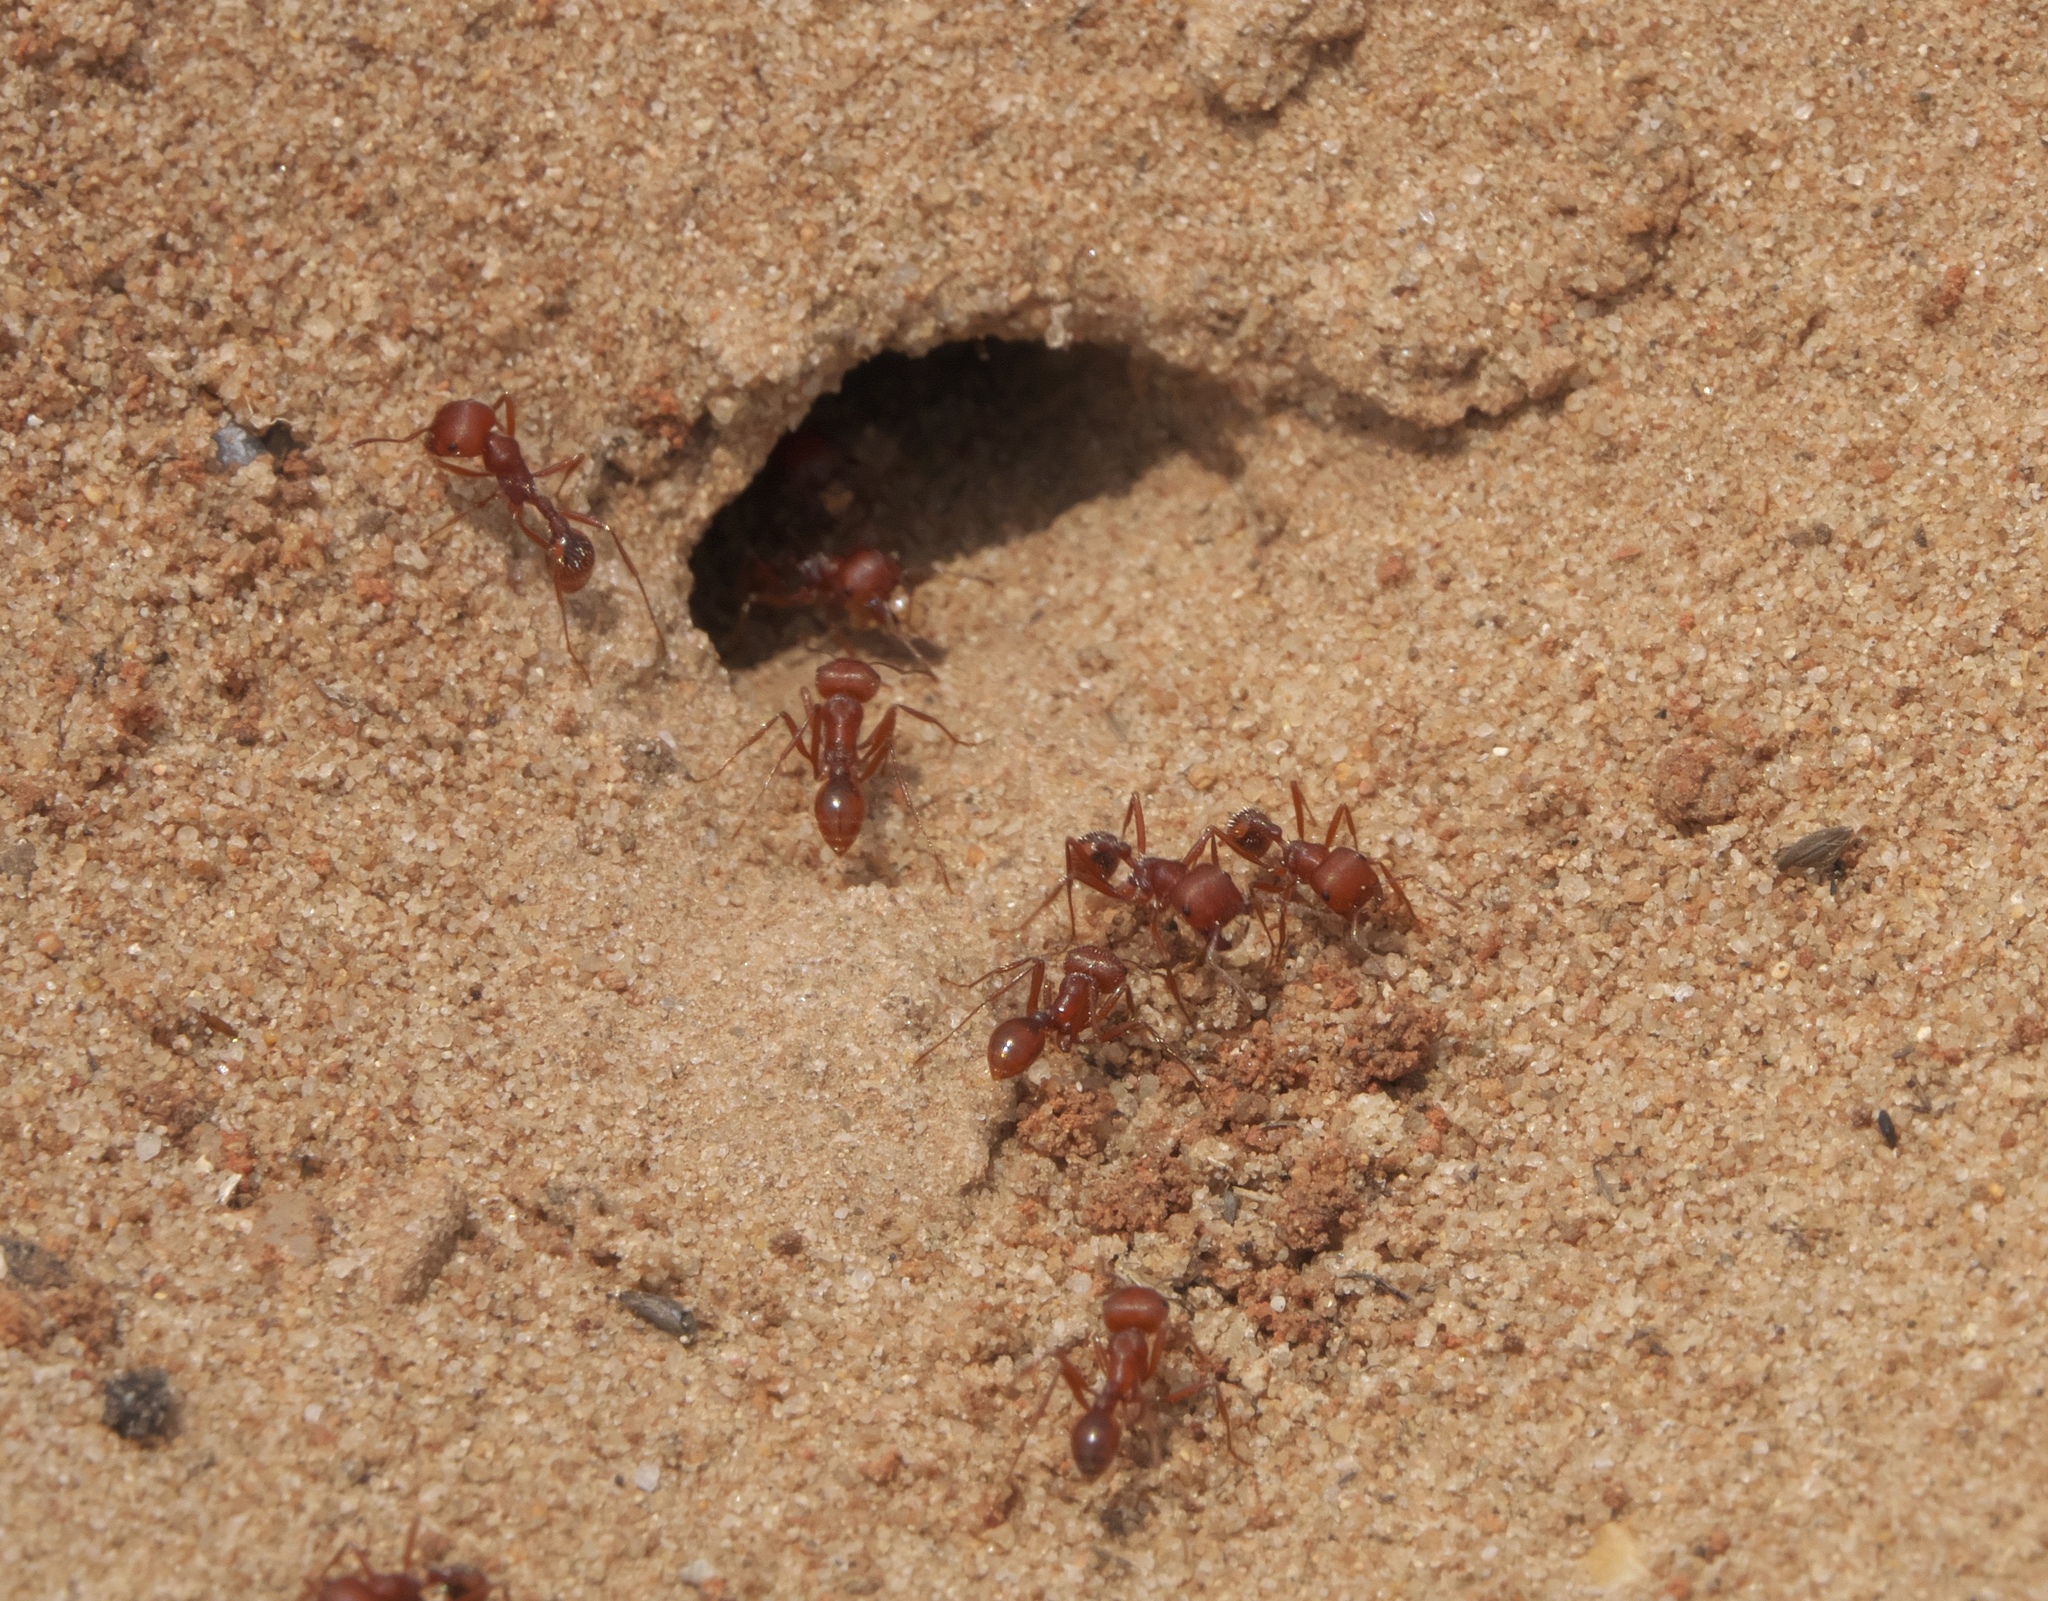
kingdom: Animalia
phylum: Arthropoda
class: Insecta
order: Hymenoptera
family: Formicidae
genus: Pogonomyrmex
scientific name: Pogonomyrmex comanche
